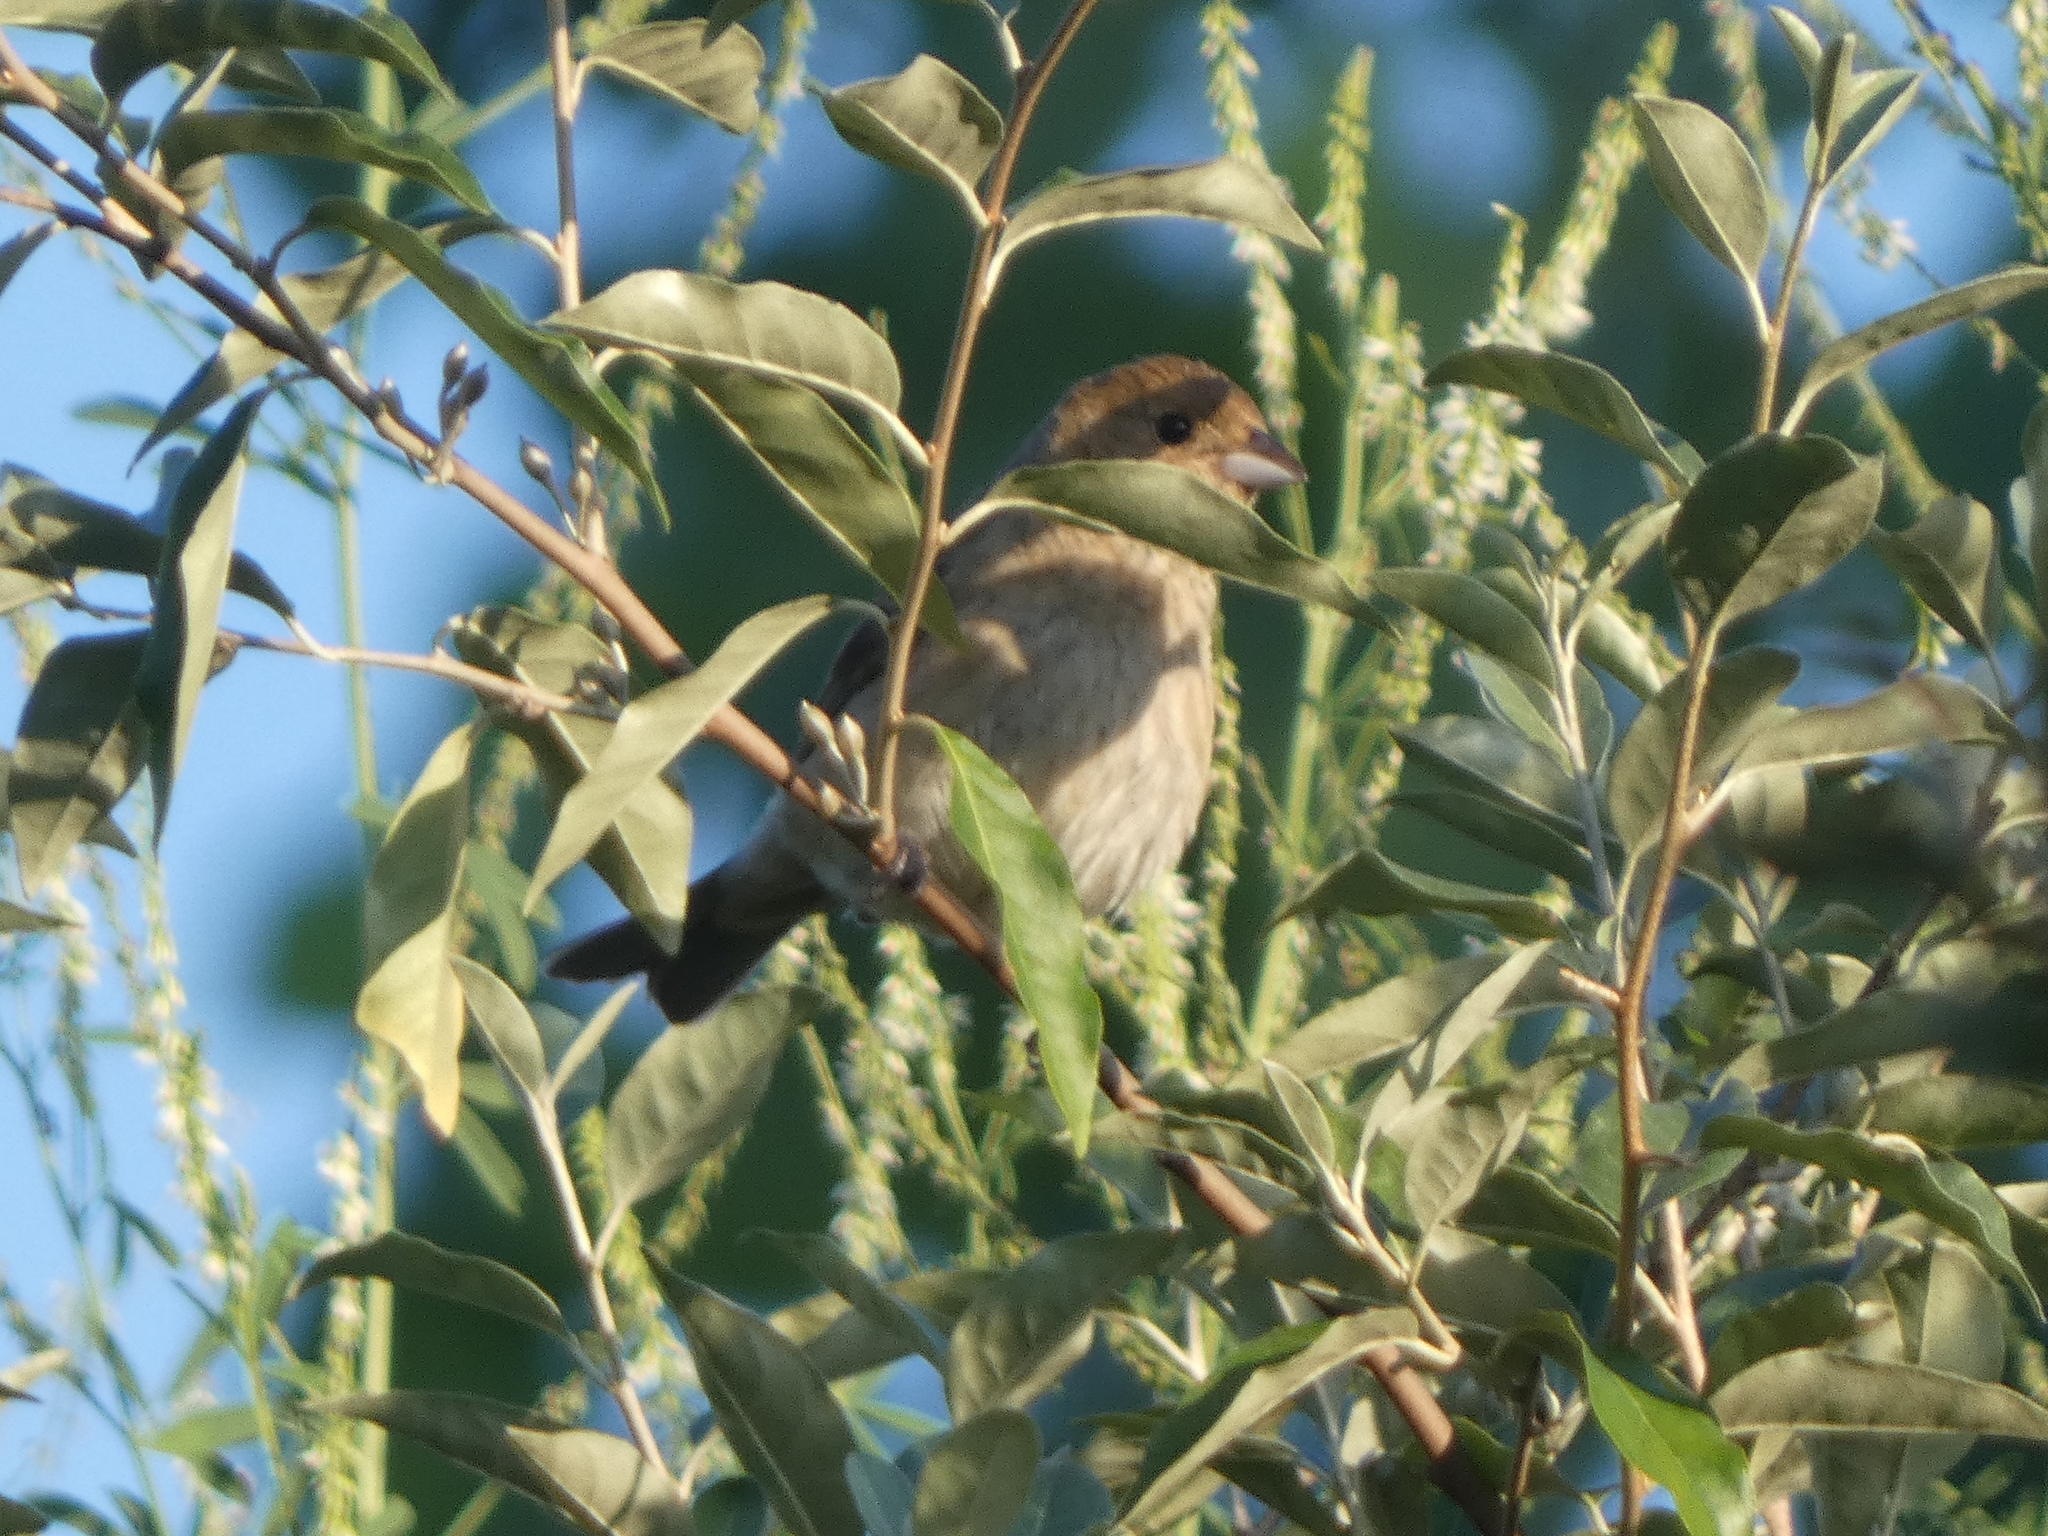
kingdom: Animalia
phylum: Chordata
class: Aves
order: Passeriformes
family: Cardinalidae
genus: Passerina
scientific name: Passerina cyanea
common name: Indigo bunting
